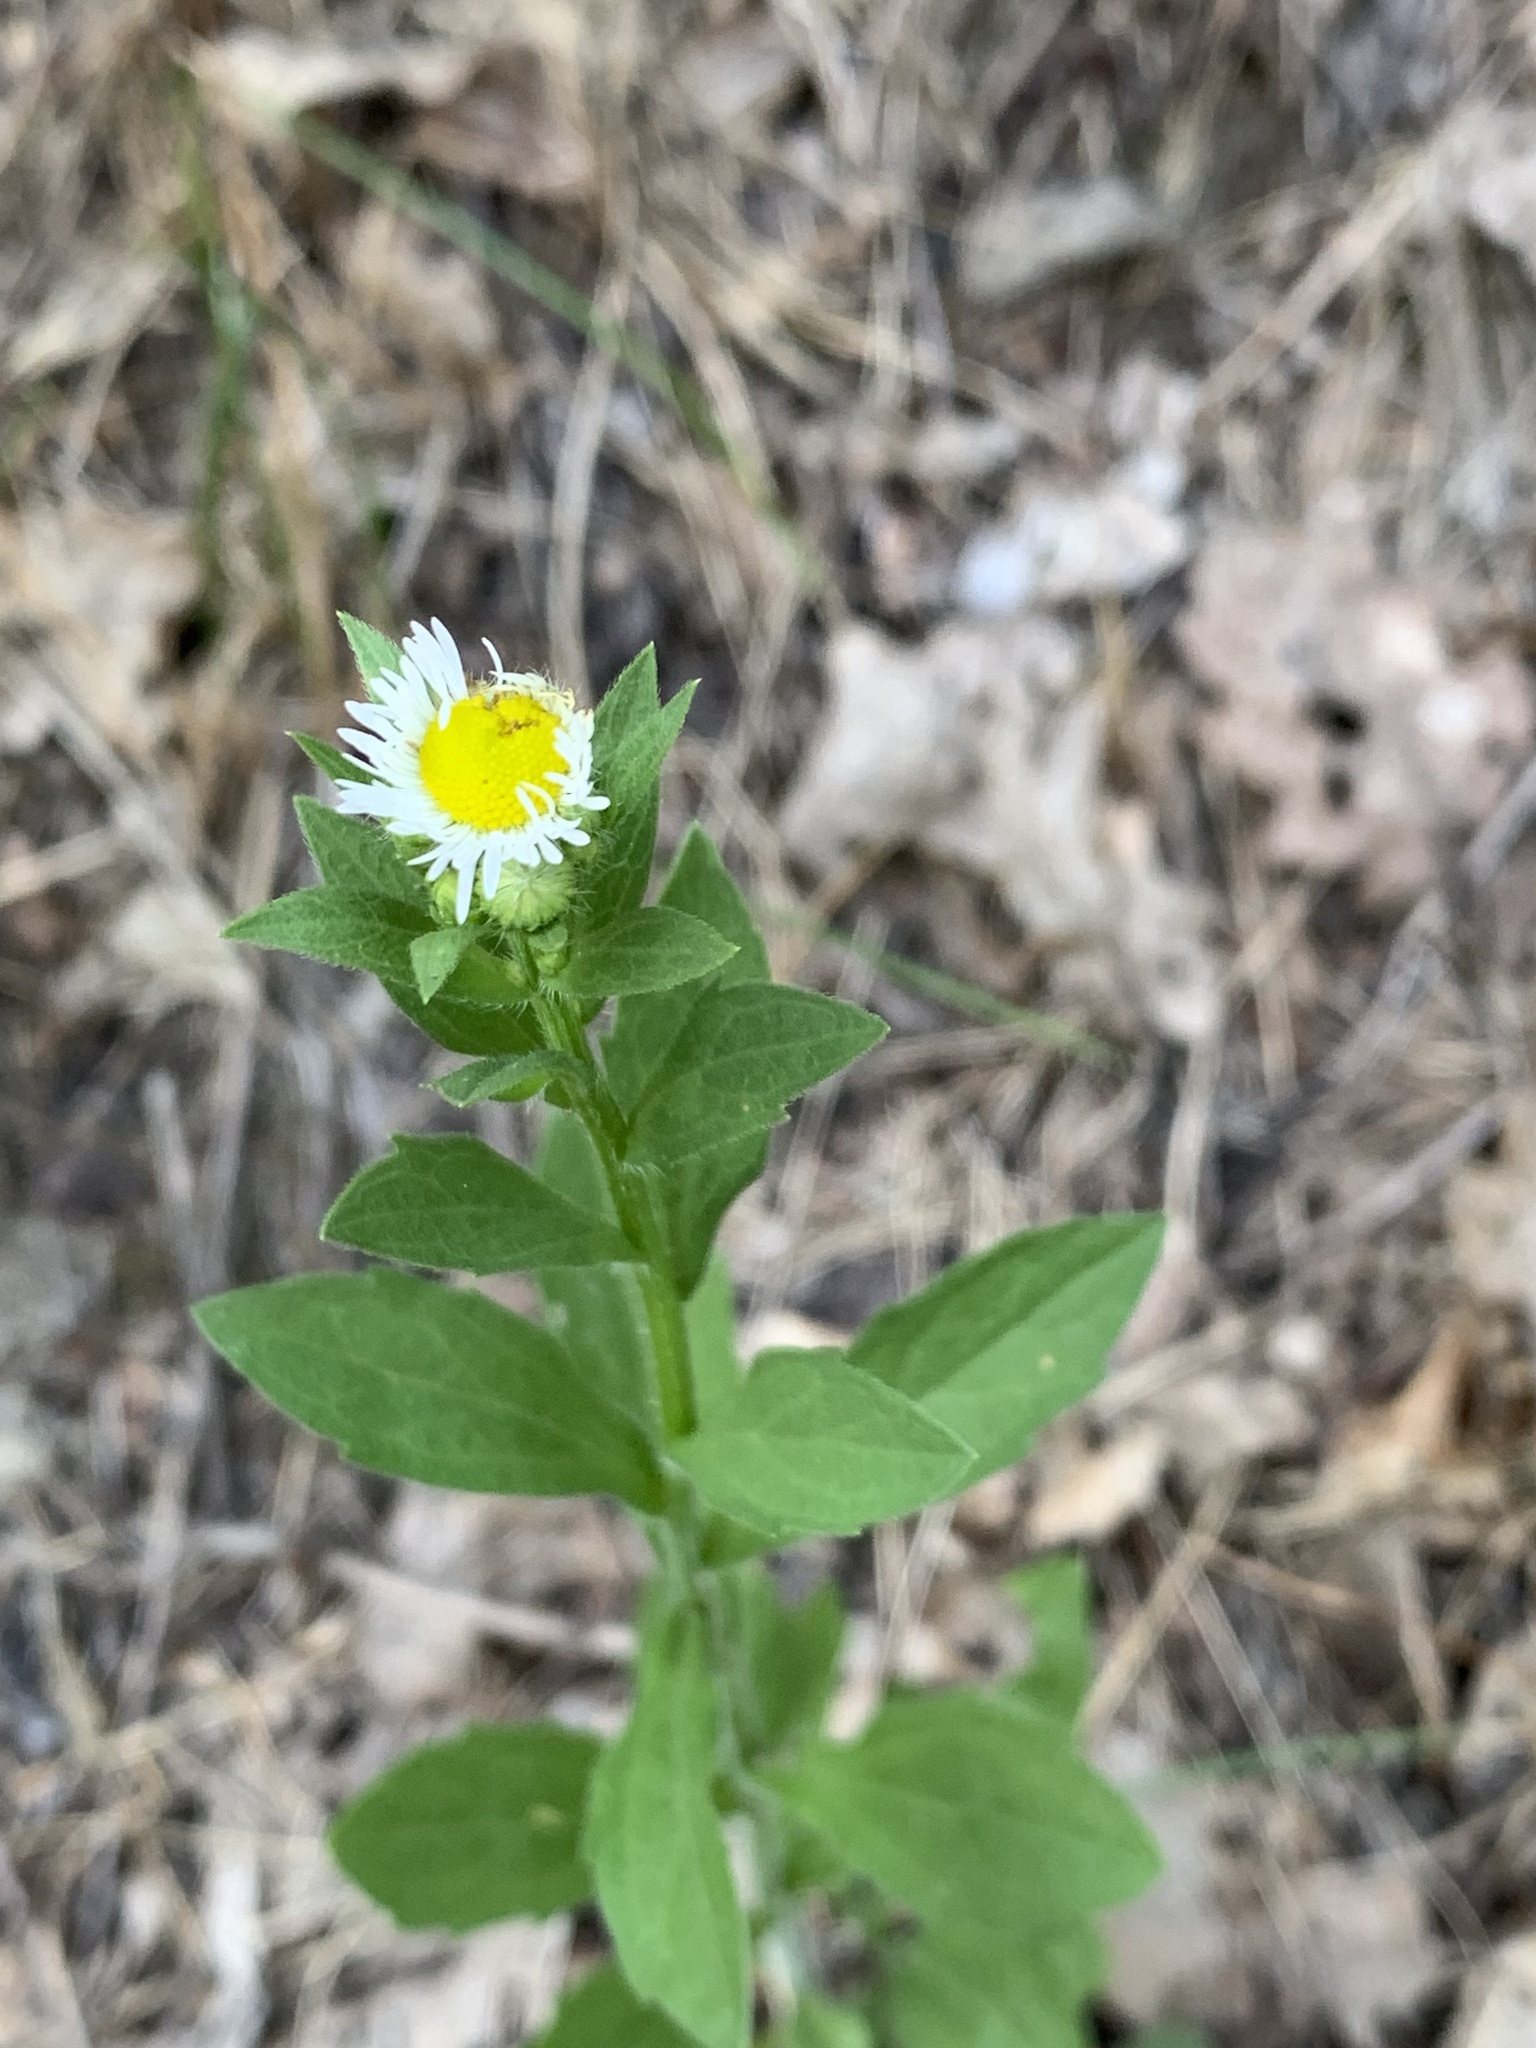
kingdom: Plantae
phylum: Tracheophyta
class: Magnoliopsida
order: Asterales
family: Asteraceae
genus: Erigeron
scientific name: Erigeron annuus
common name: Tall fleabane
